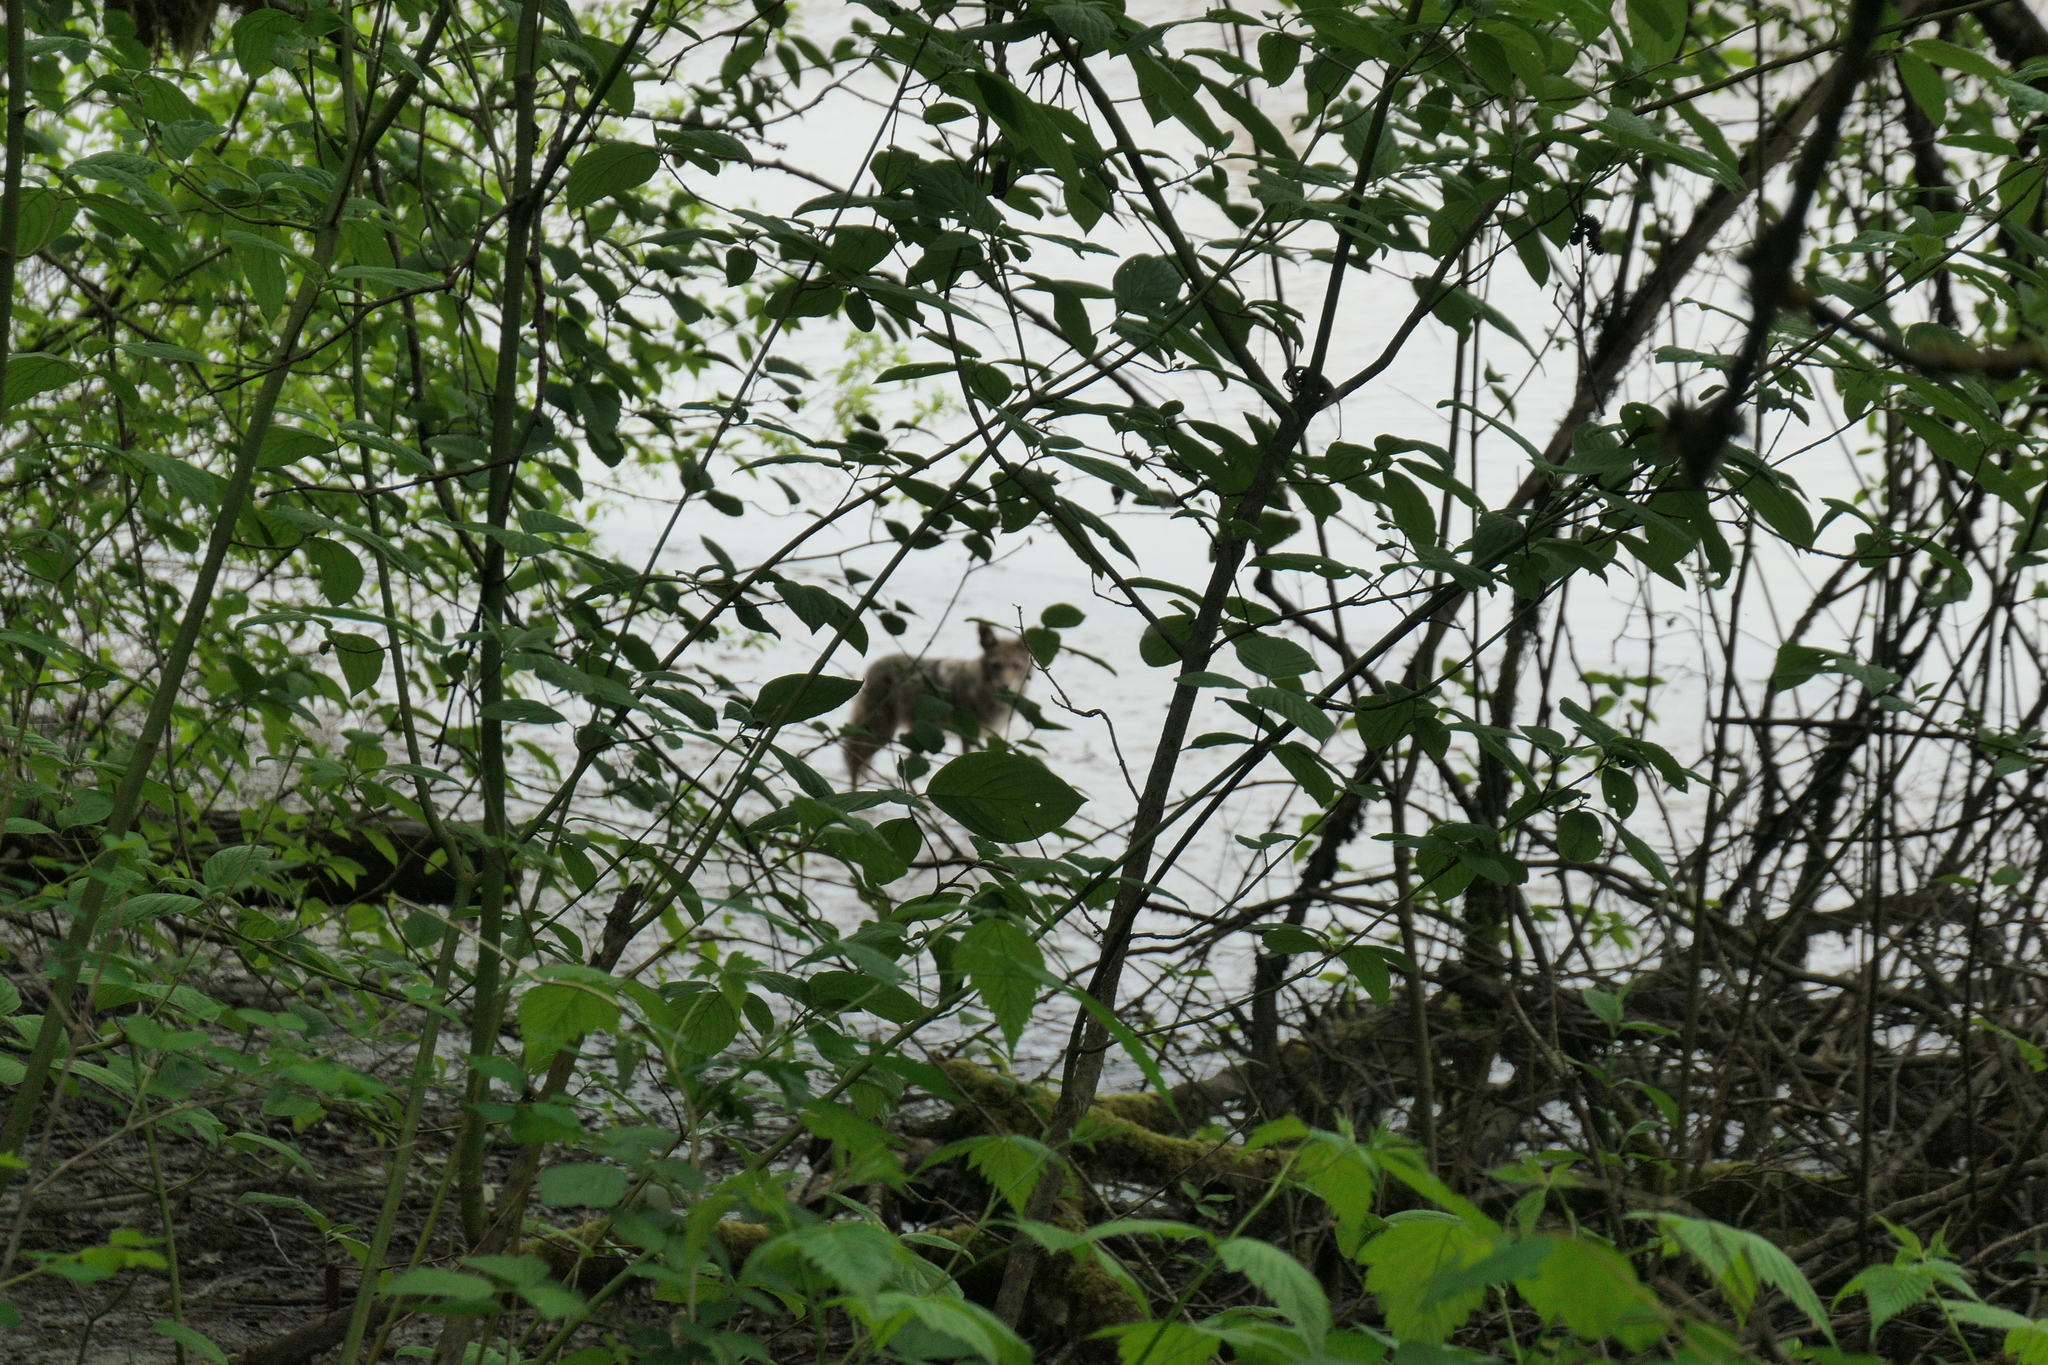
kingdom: Animalia
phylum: Chordata
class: Mammalia
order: Carnivora
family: Canidae
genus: Canis
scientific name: Canis latrans
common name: Coyote
